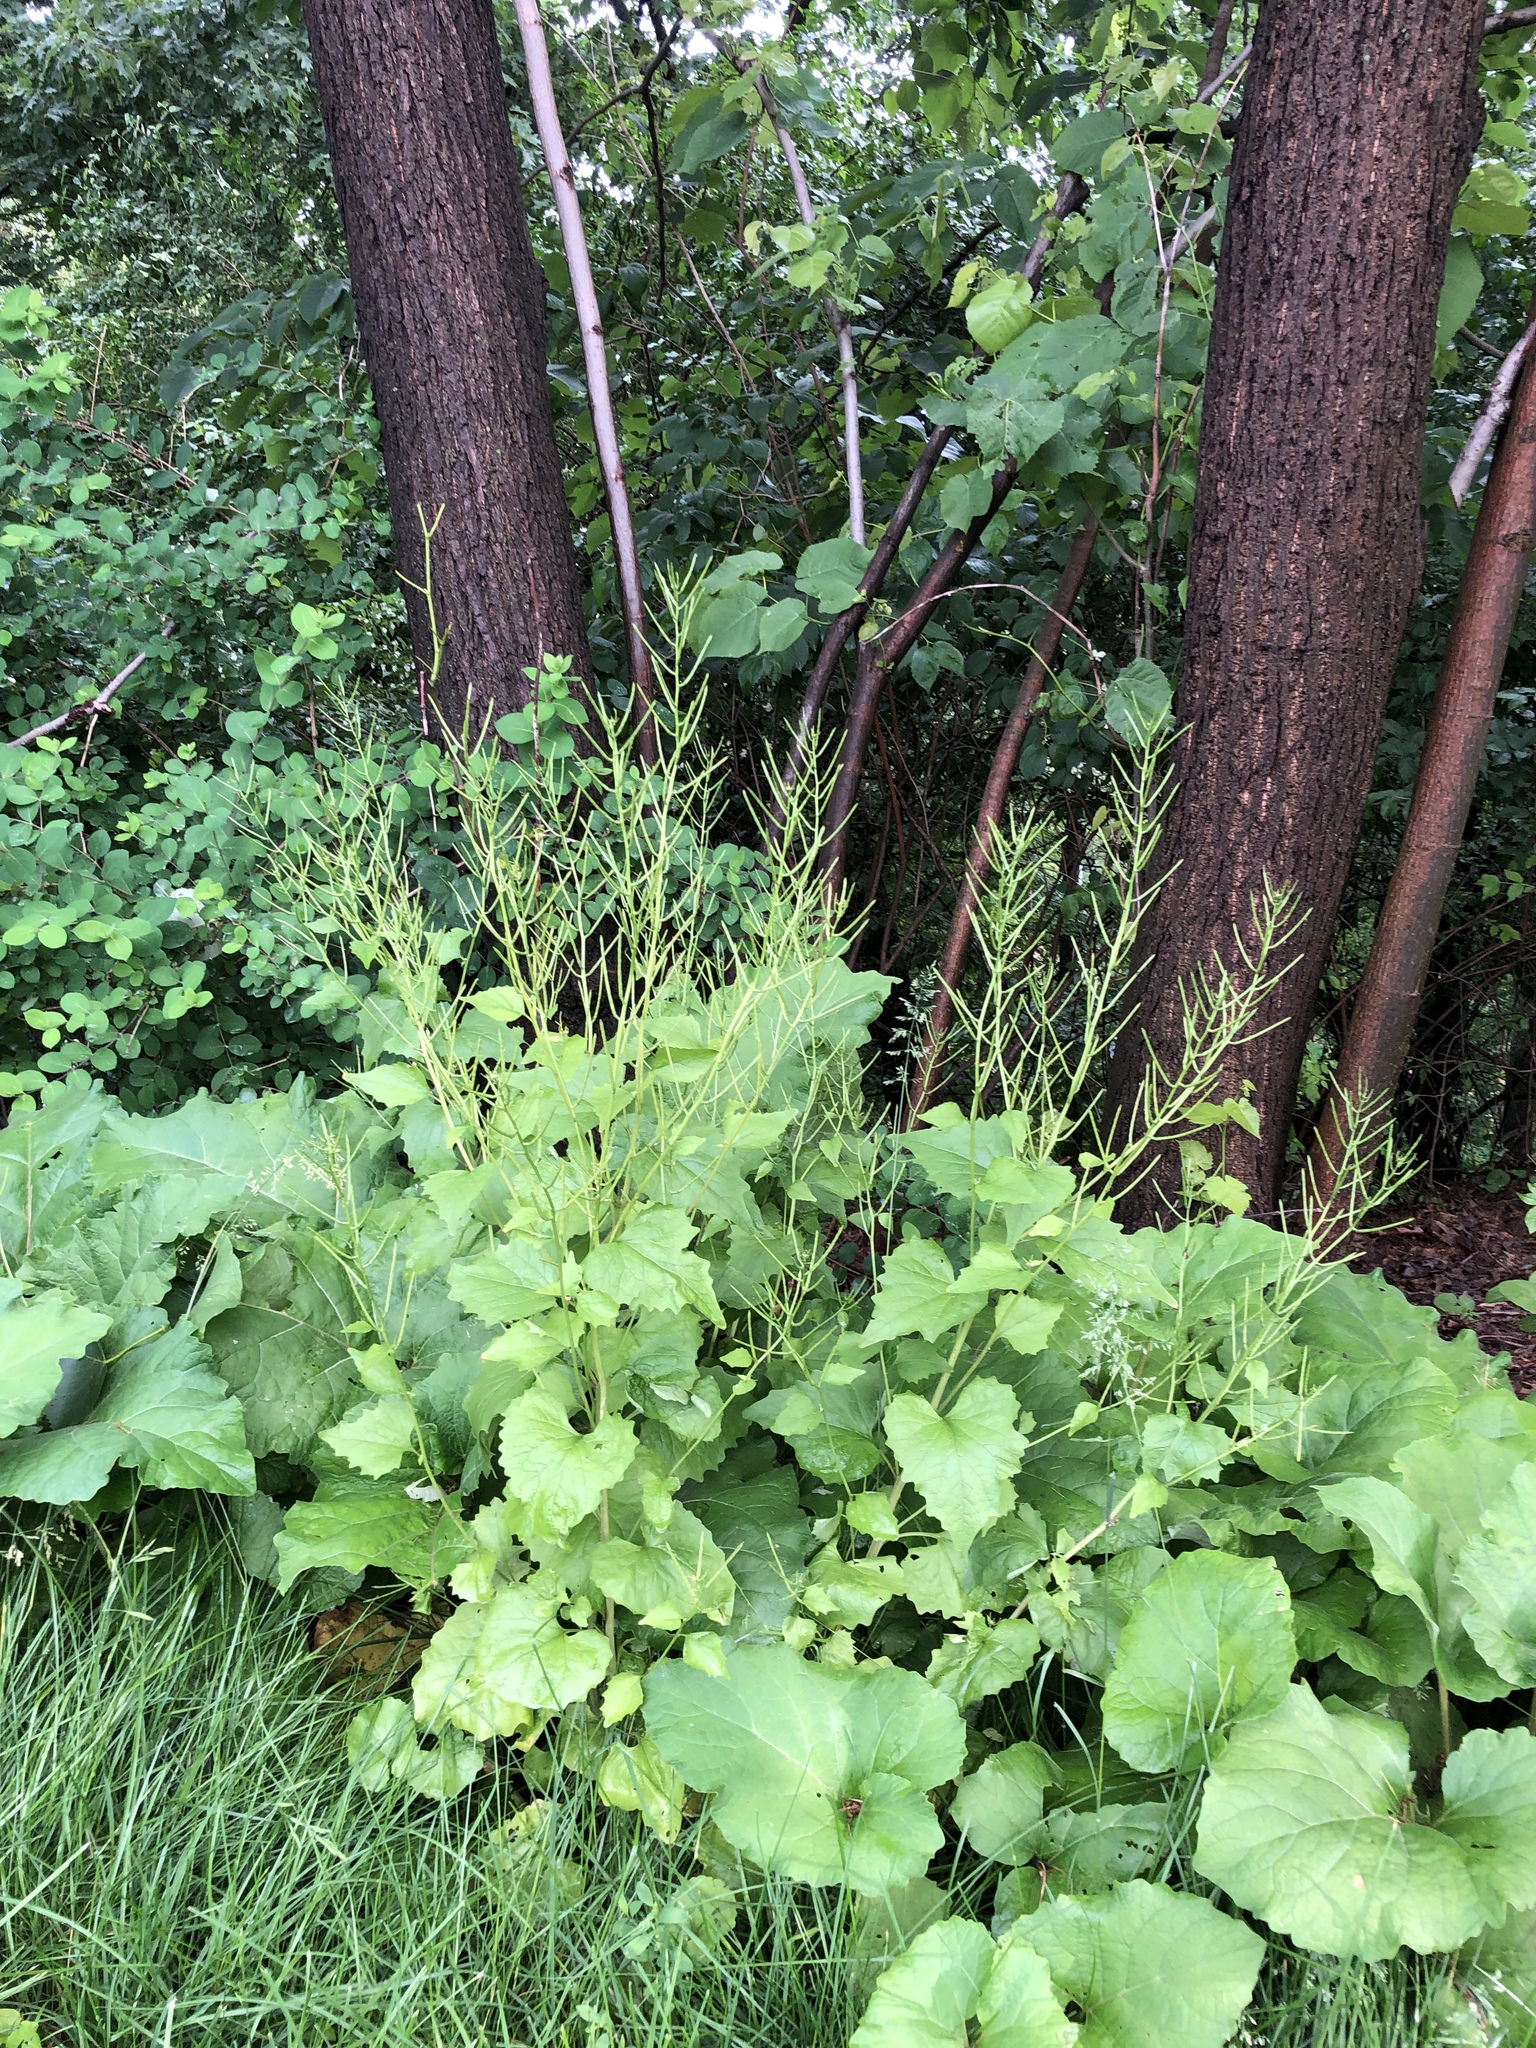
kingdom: Plantae
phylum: Tracheophyta
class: Magnoliopsida
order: Brassicales
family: Brassicaceae
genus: Alliaria
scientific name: Alliaria petiolata
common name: Garlic mustard
